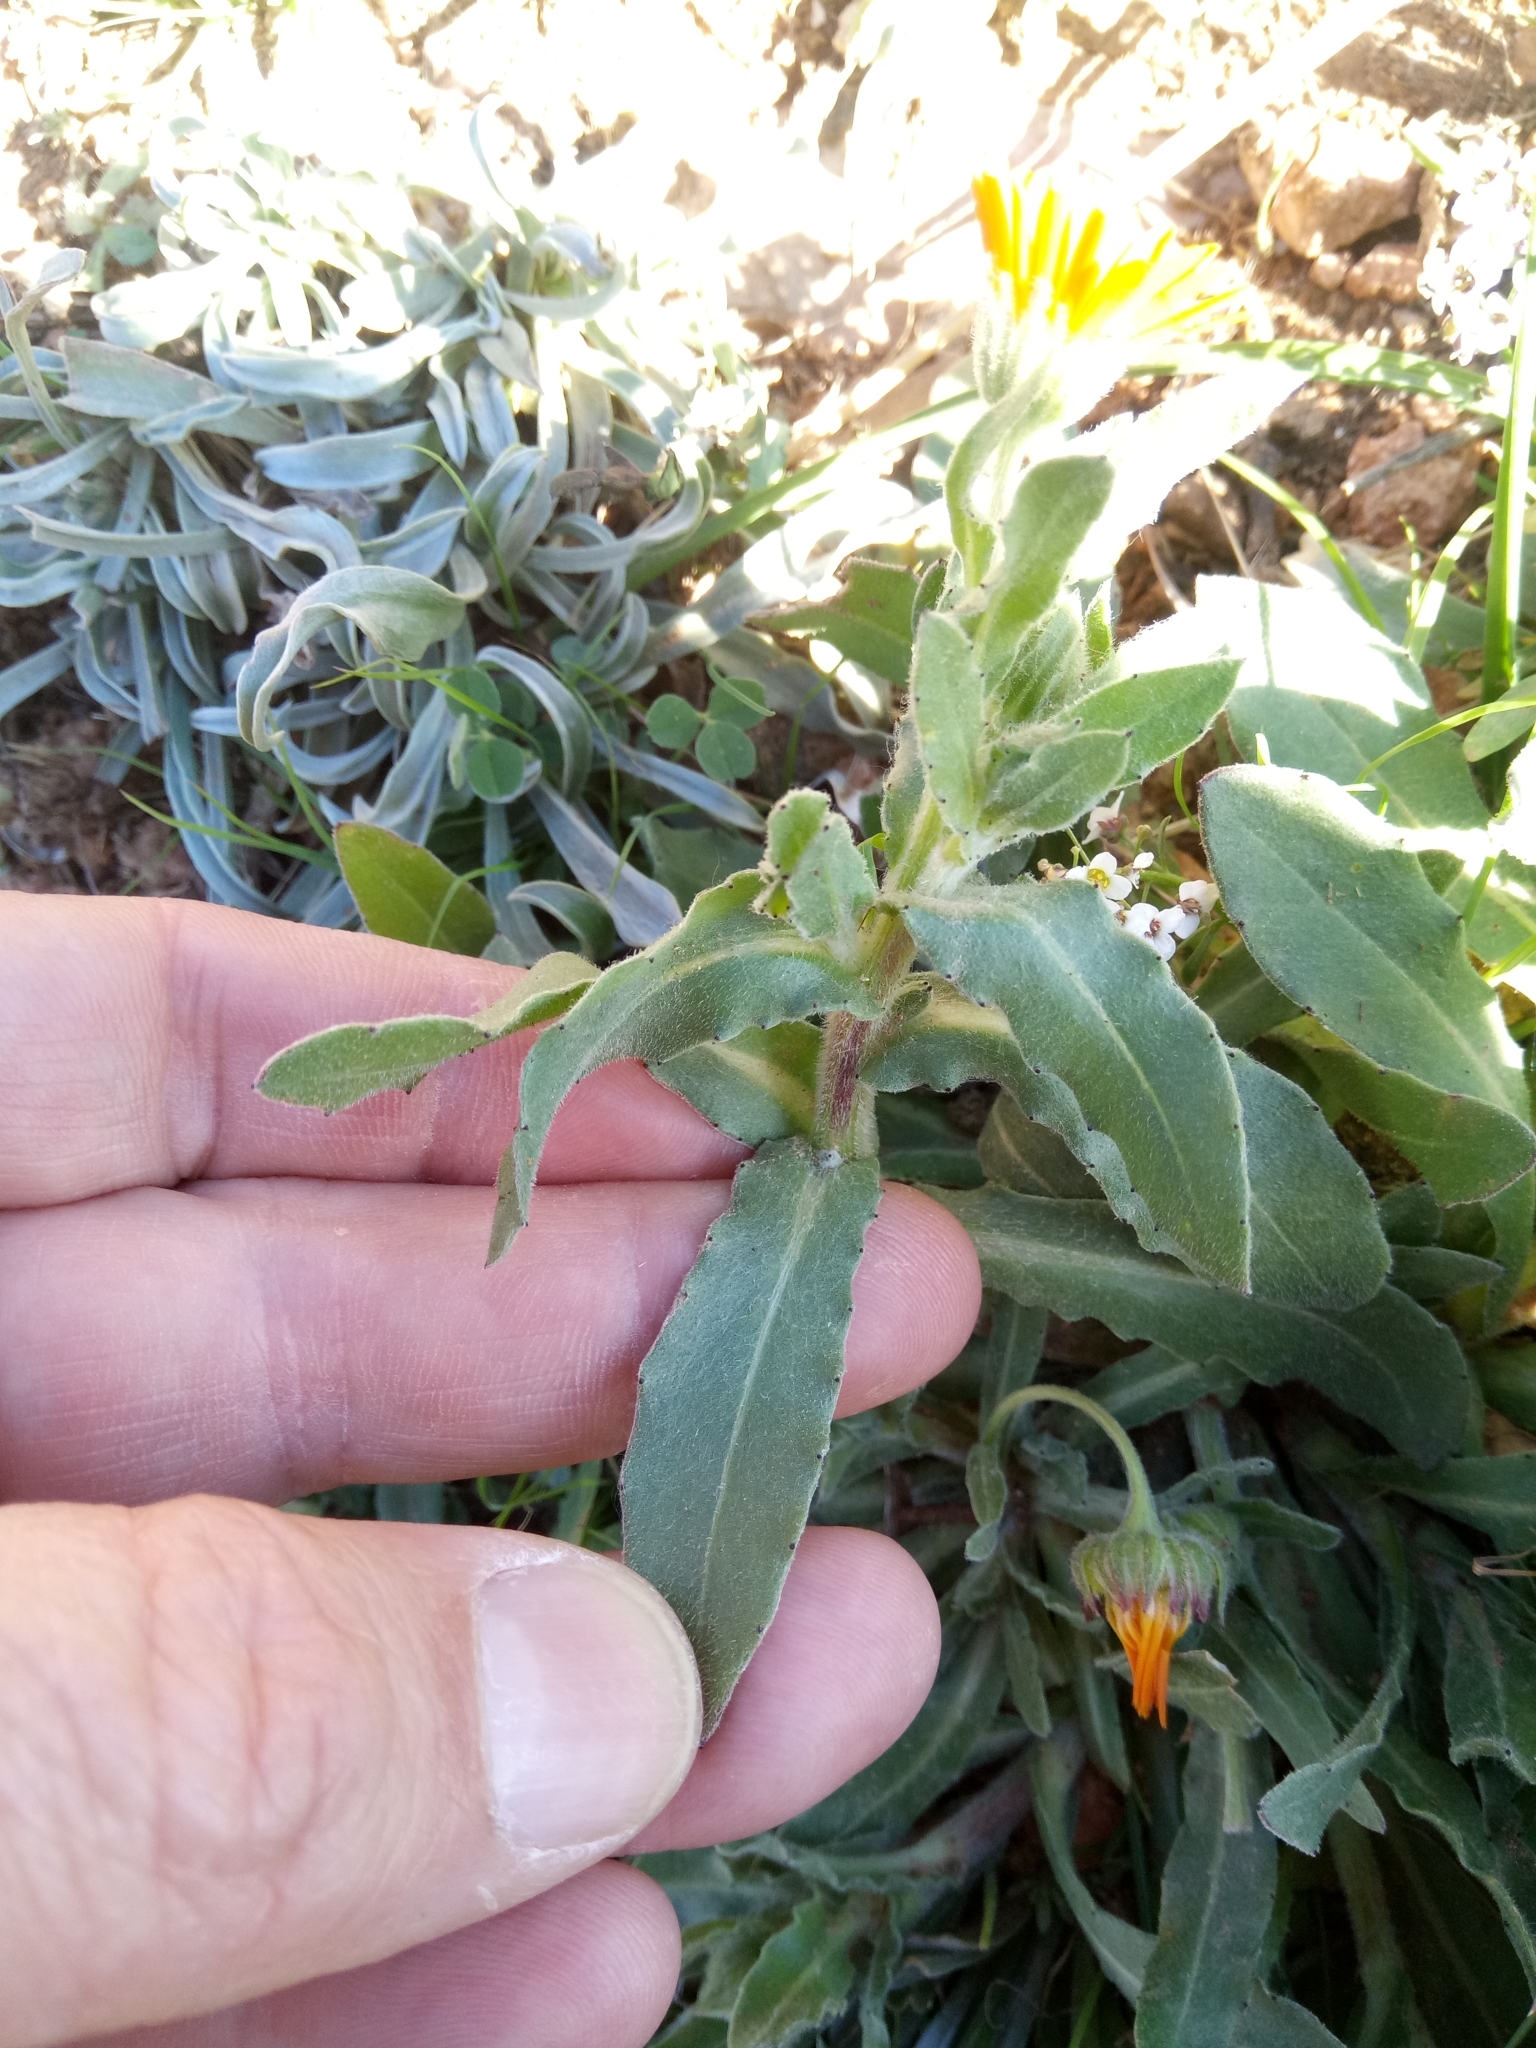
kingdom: Plantae
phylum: Tracheophyta
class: Magnoliopsida
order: Asterales
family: Asteraceae
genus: Calendula
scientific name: Calendula arvensis
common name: Field marigold
